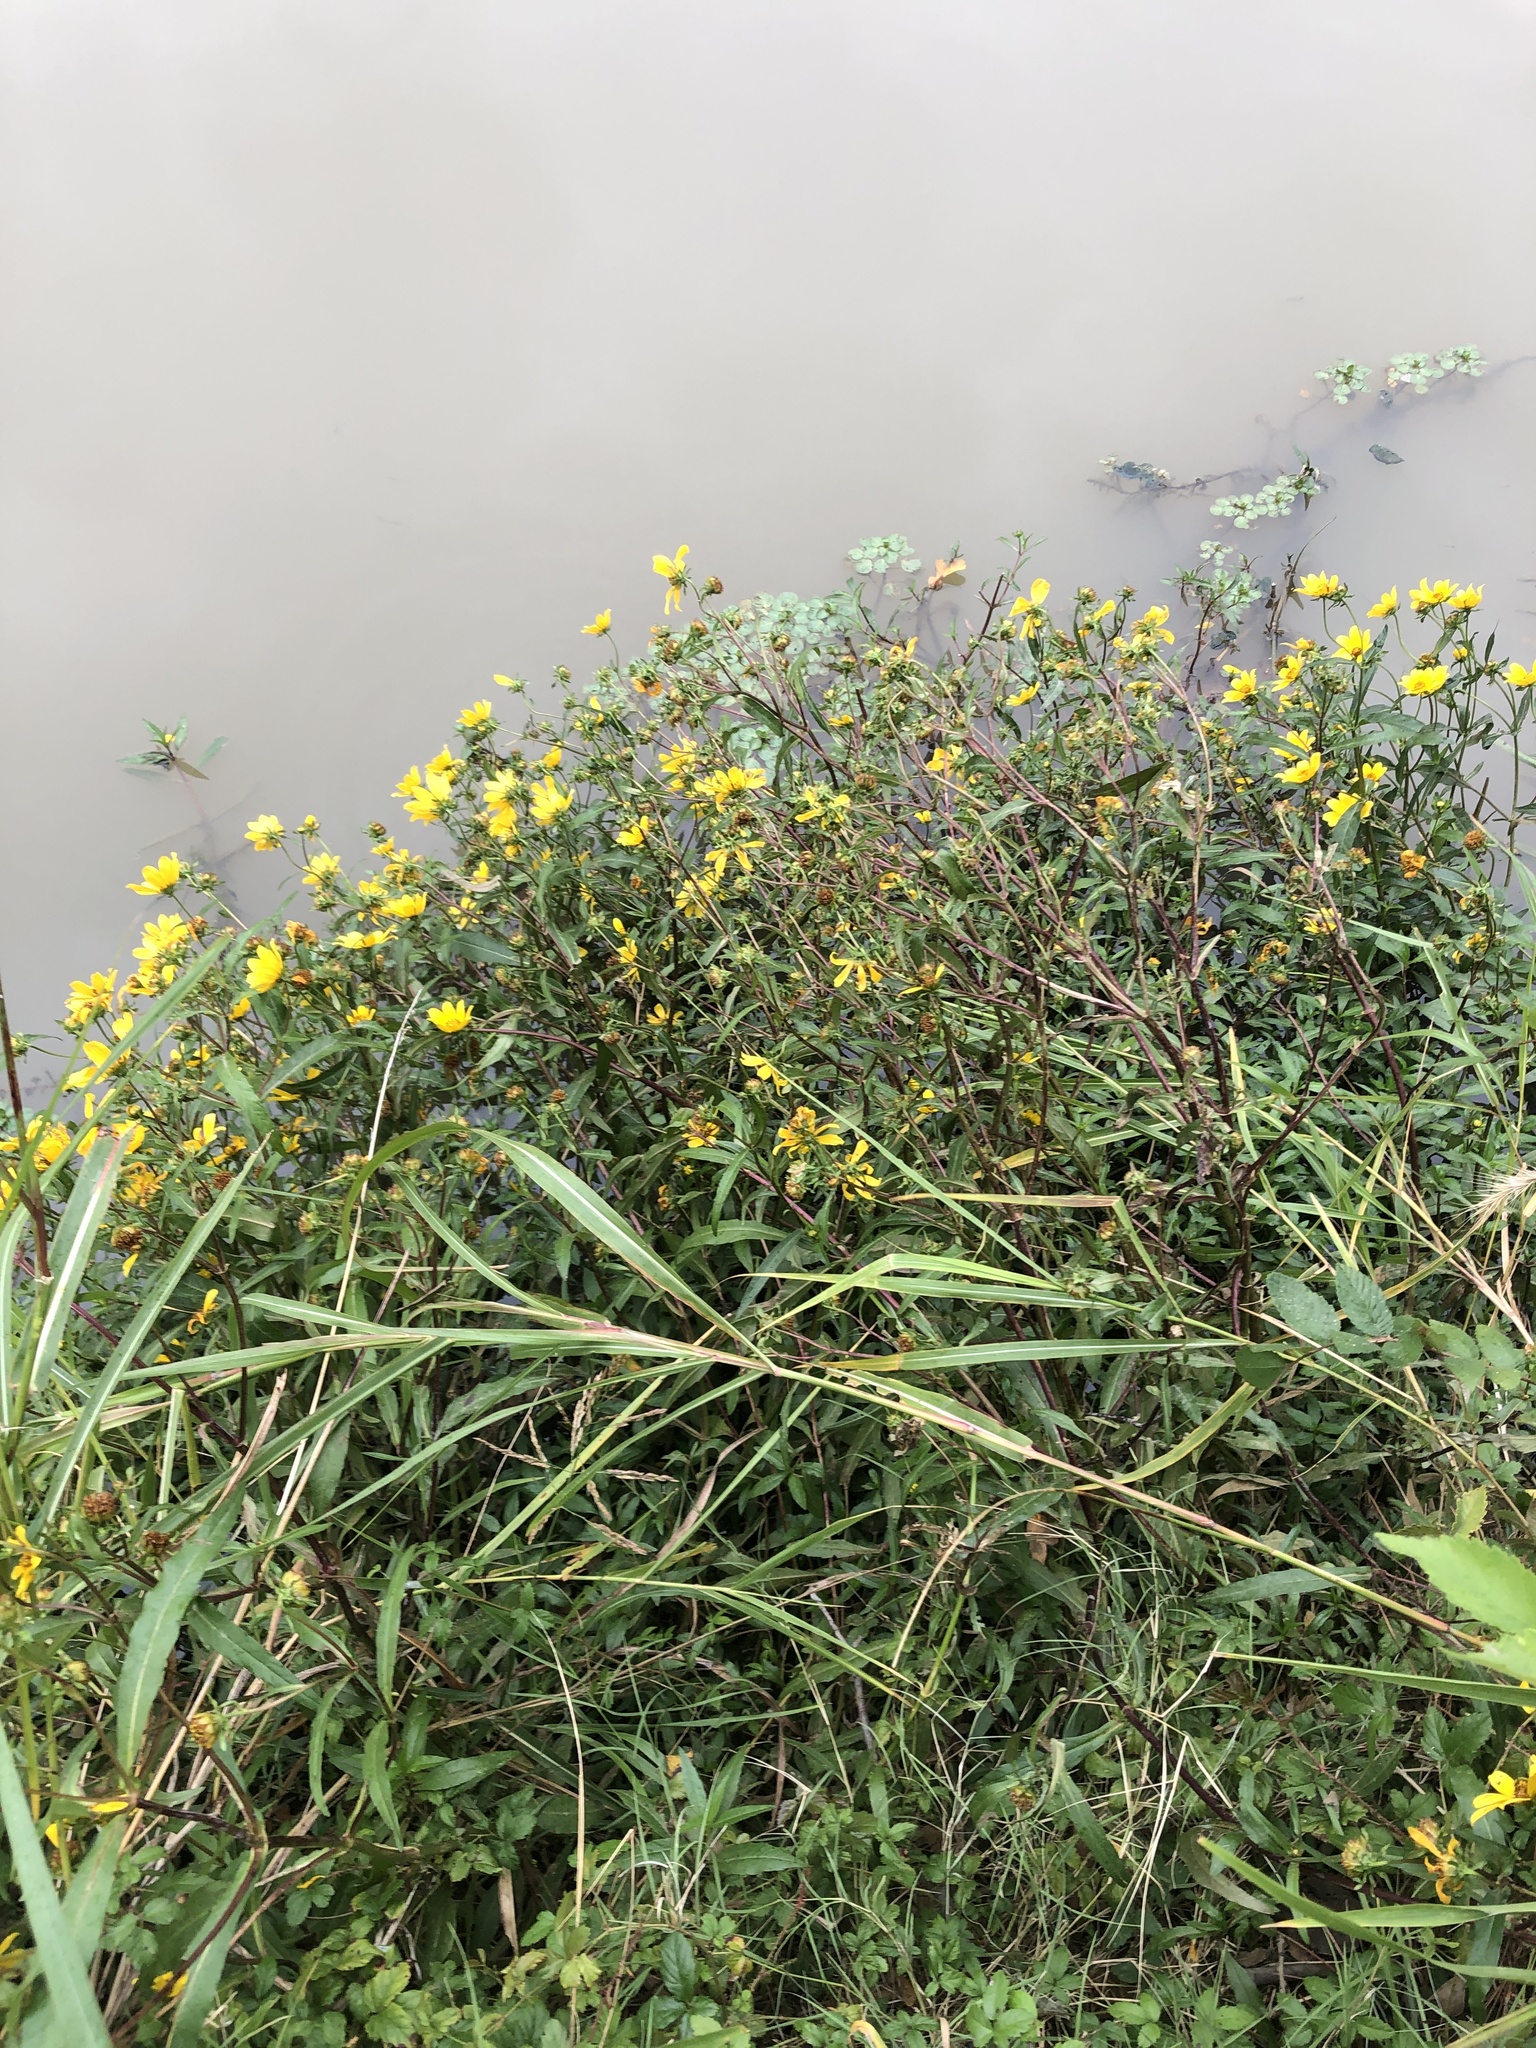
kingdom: Plantae
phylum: Tracheophyta
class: Magnoliopsida
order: Asterales
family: Asteraceae
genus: Bidens
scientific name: Bidens laevis
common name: Larger bur-marigold
